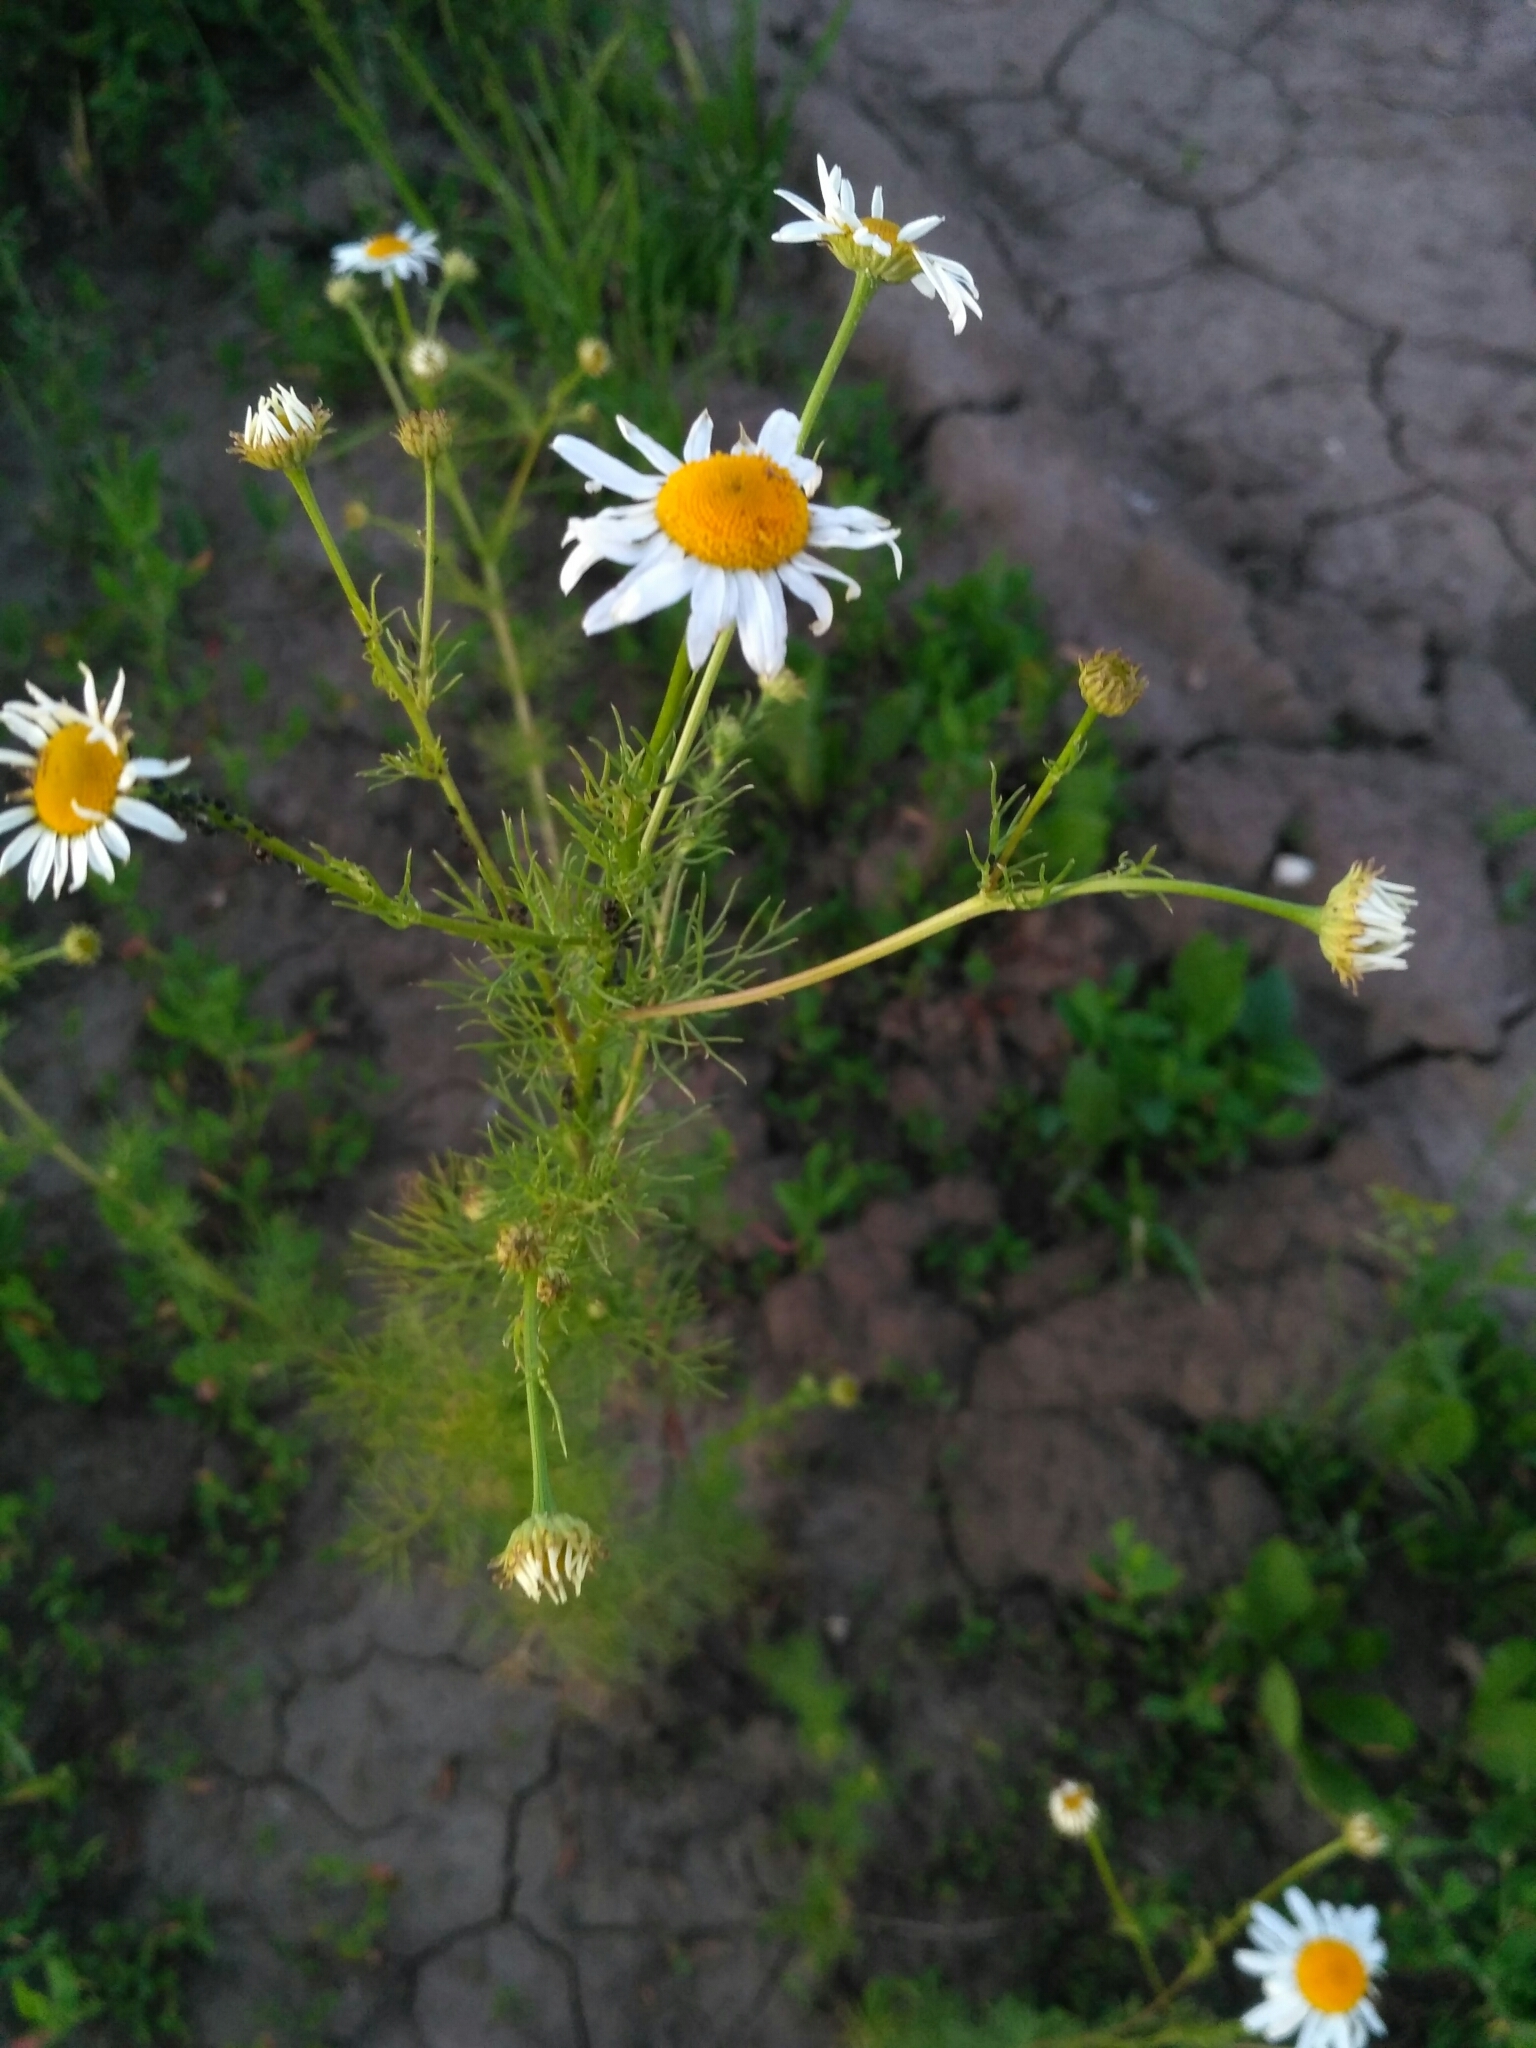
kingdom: Plantae
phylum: Tracheophyta
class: Magnoliopsida
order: Asterales
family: Asteraceae
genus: Tripleurospermum
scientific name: Tripleurospermum inodorum
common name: Scentless mayweed
